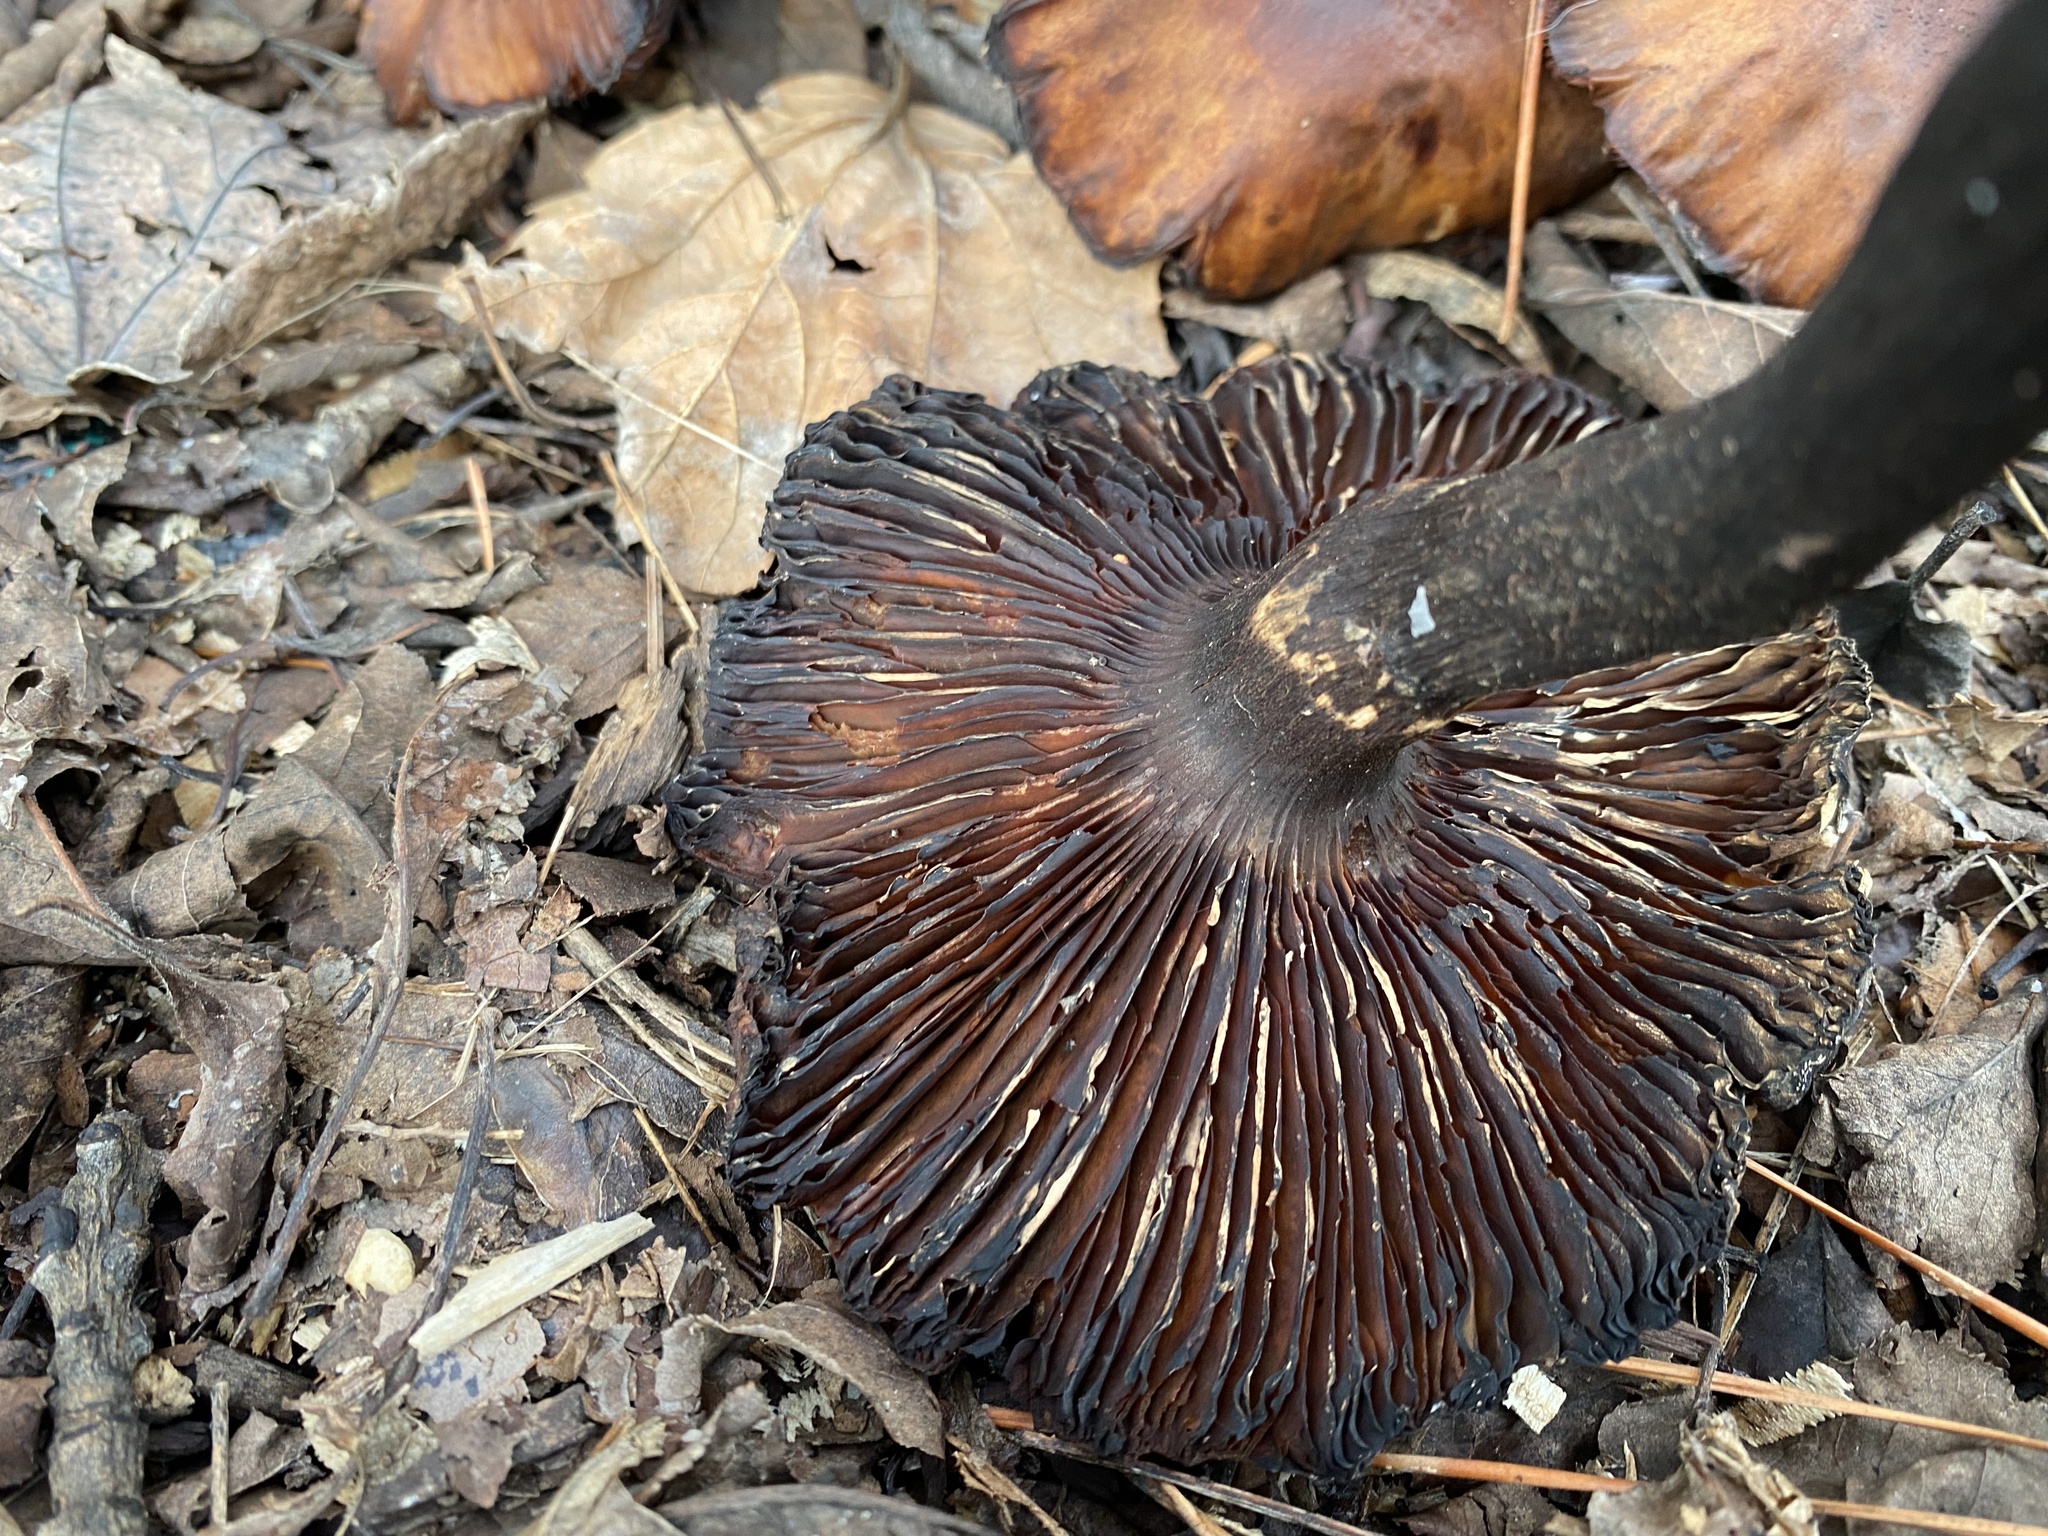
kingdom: Fungi
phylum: Basidiomycota
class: Agaricomycetes
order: Agaricales
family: Physalacriaceae
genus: Armillaria
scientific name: Armillaria mellea
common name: Honey fungus
